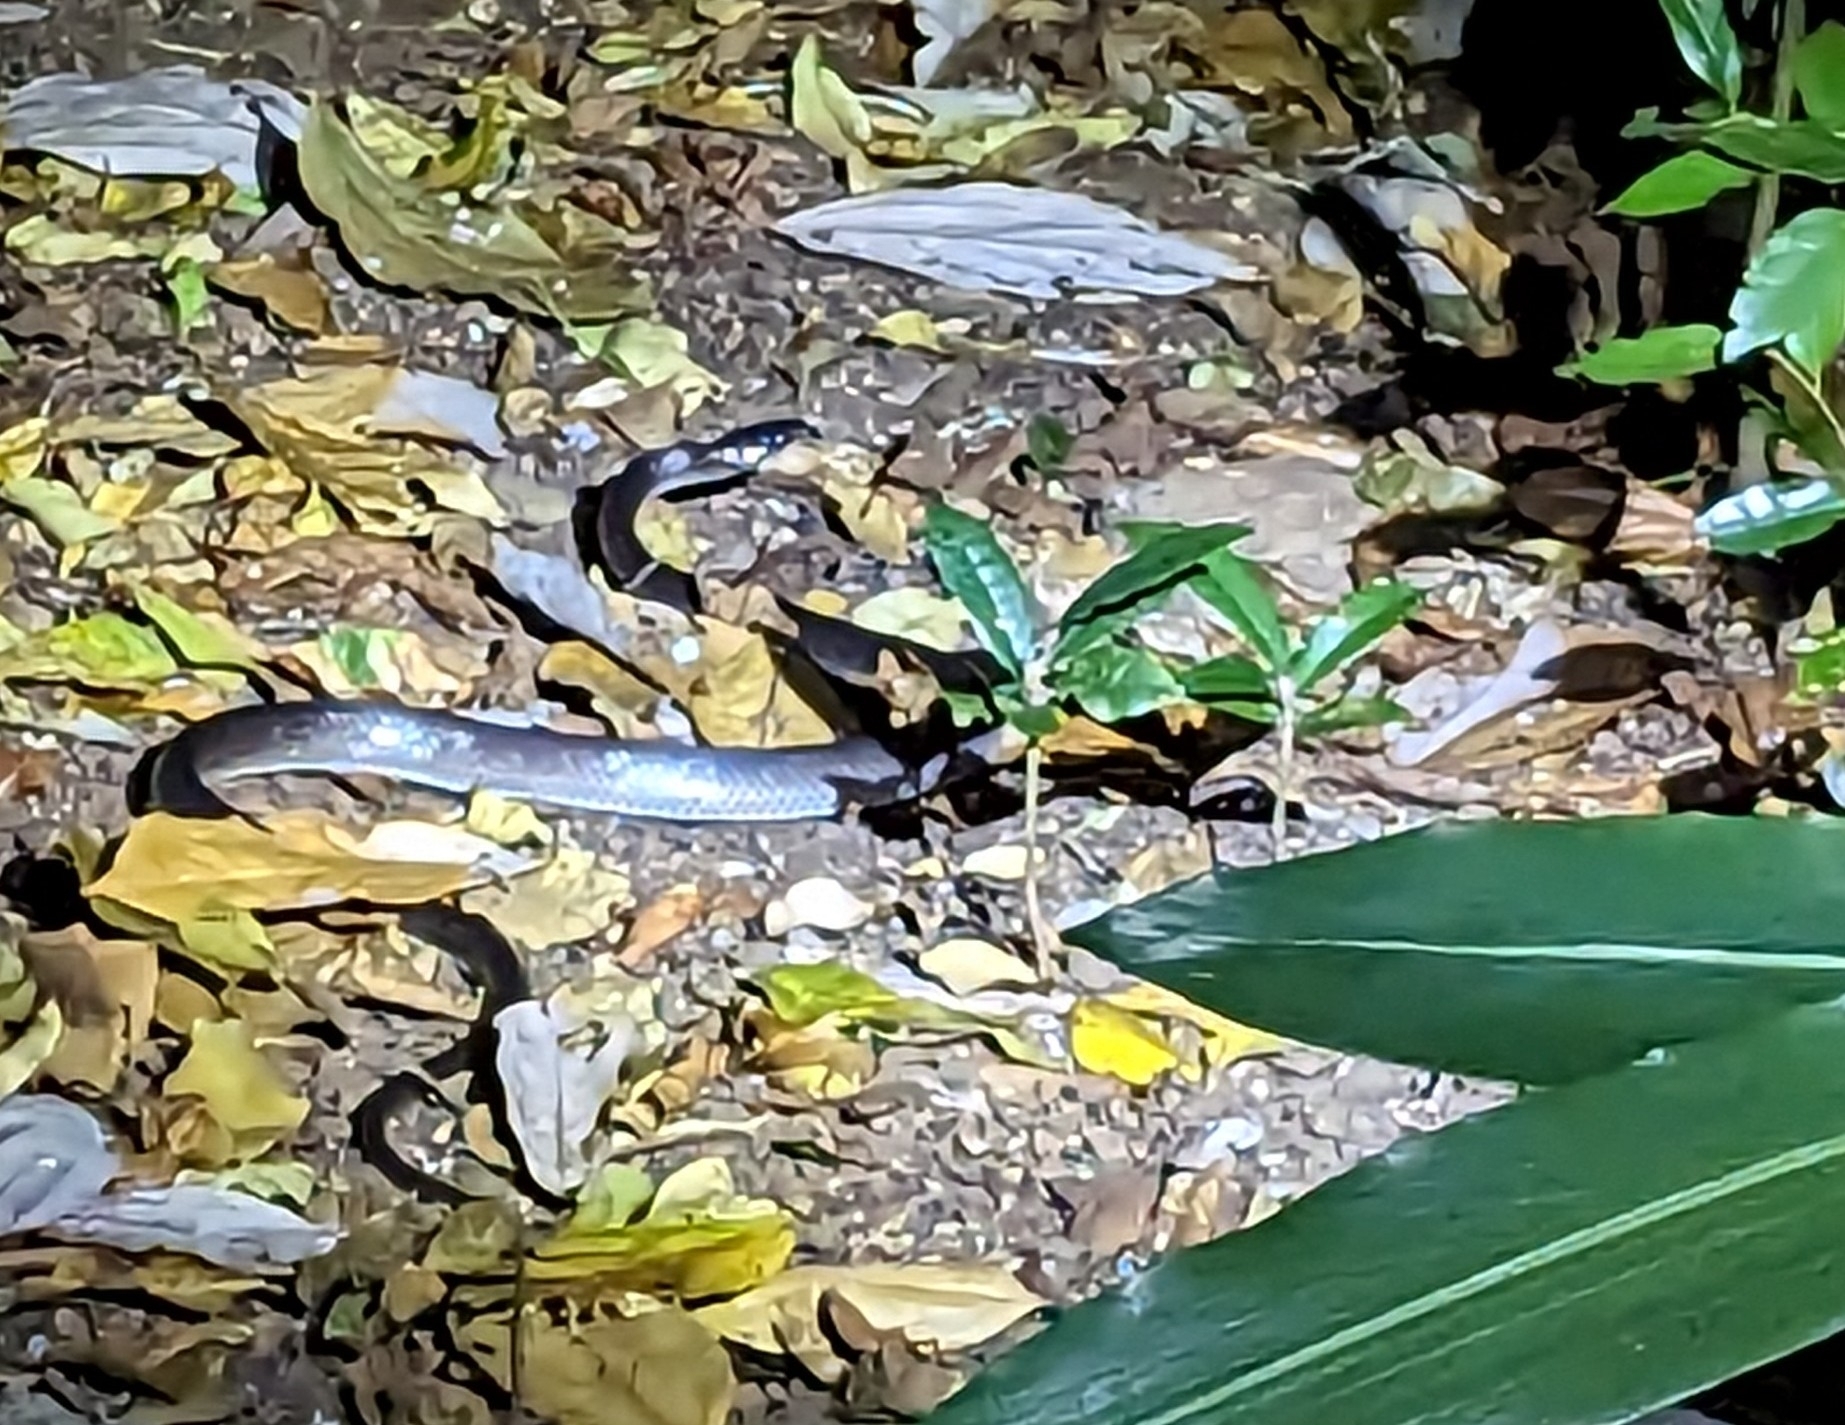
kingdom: Animalia
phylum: Chordata
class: Squamata
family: Colubridae
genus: Stegonotus
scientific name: Stegonotus australis
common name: Australian groundsnake
